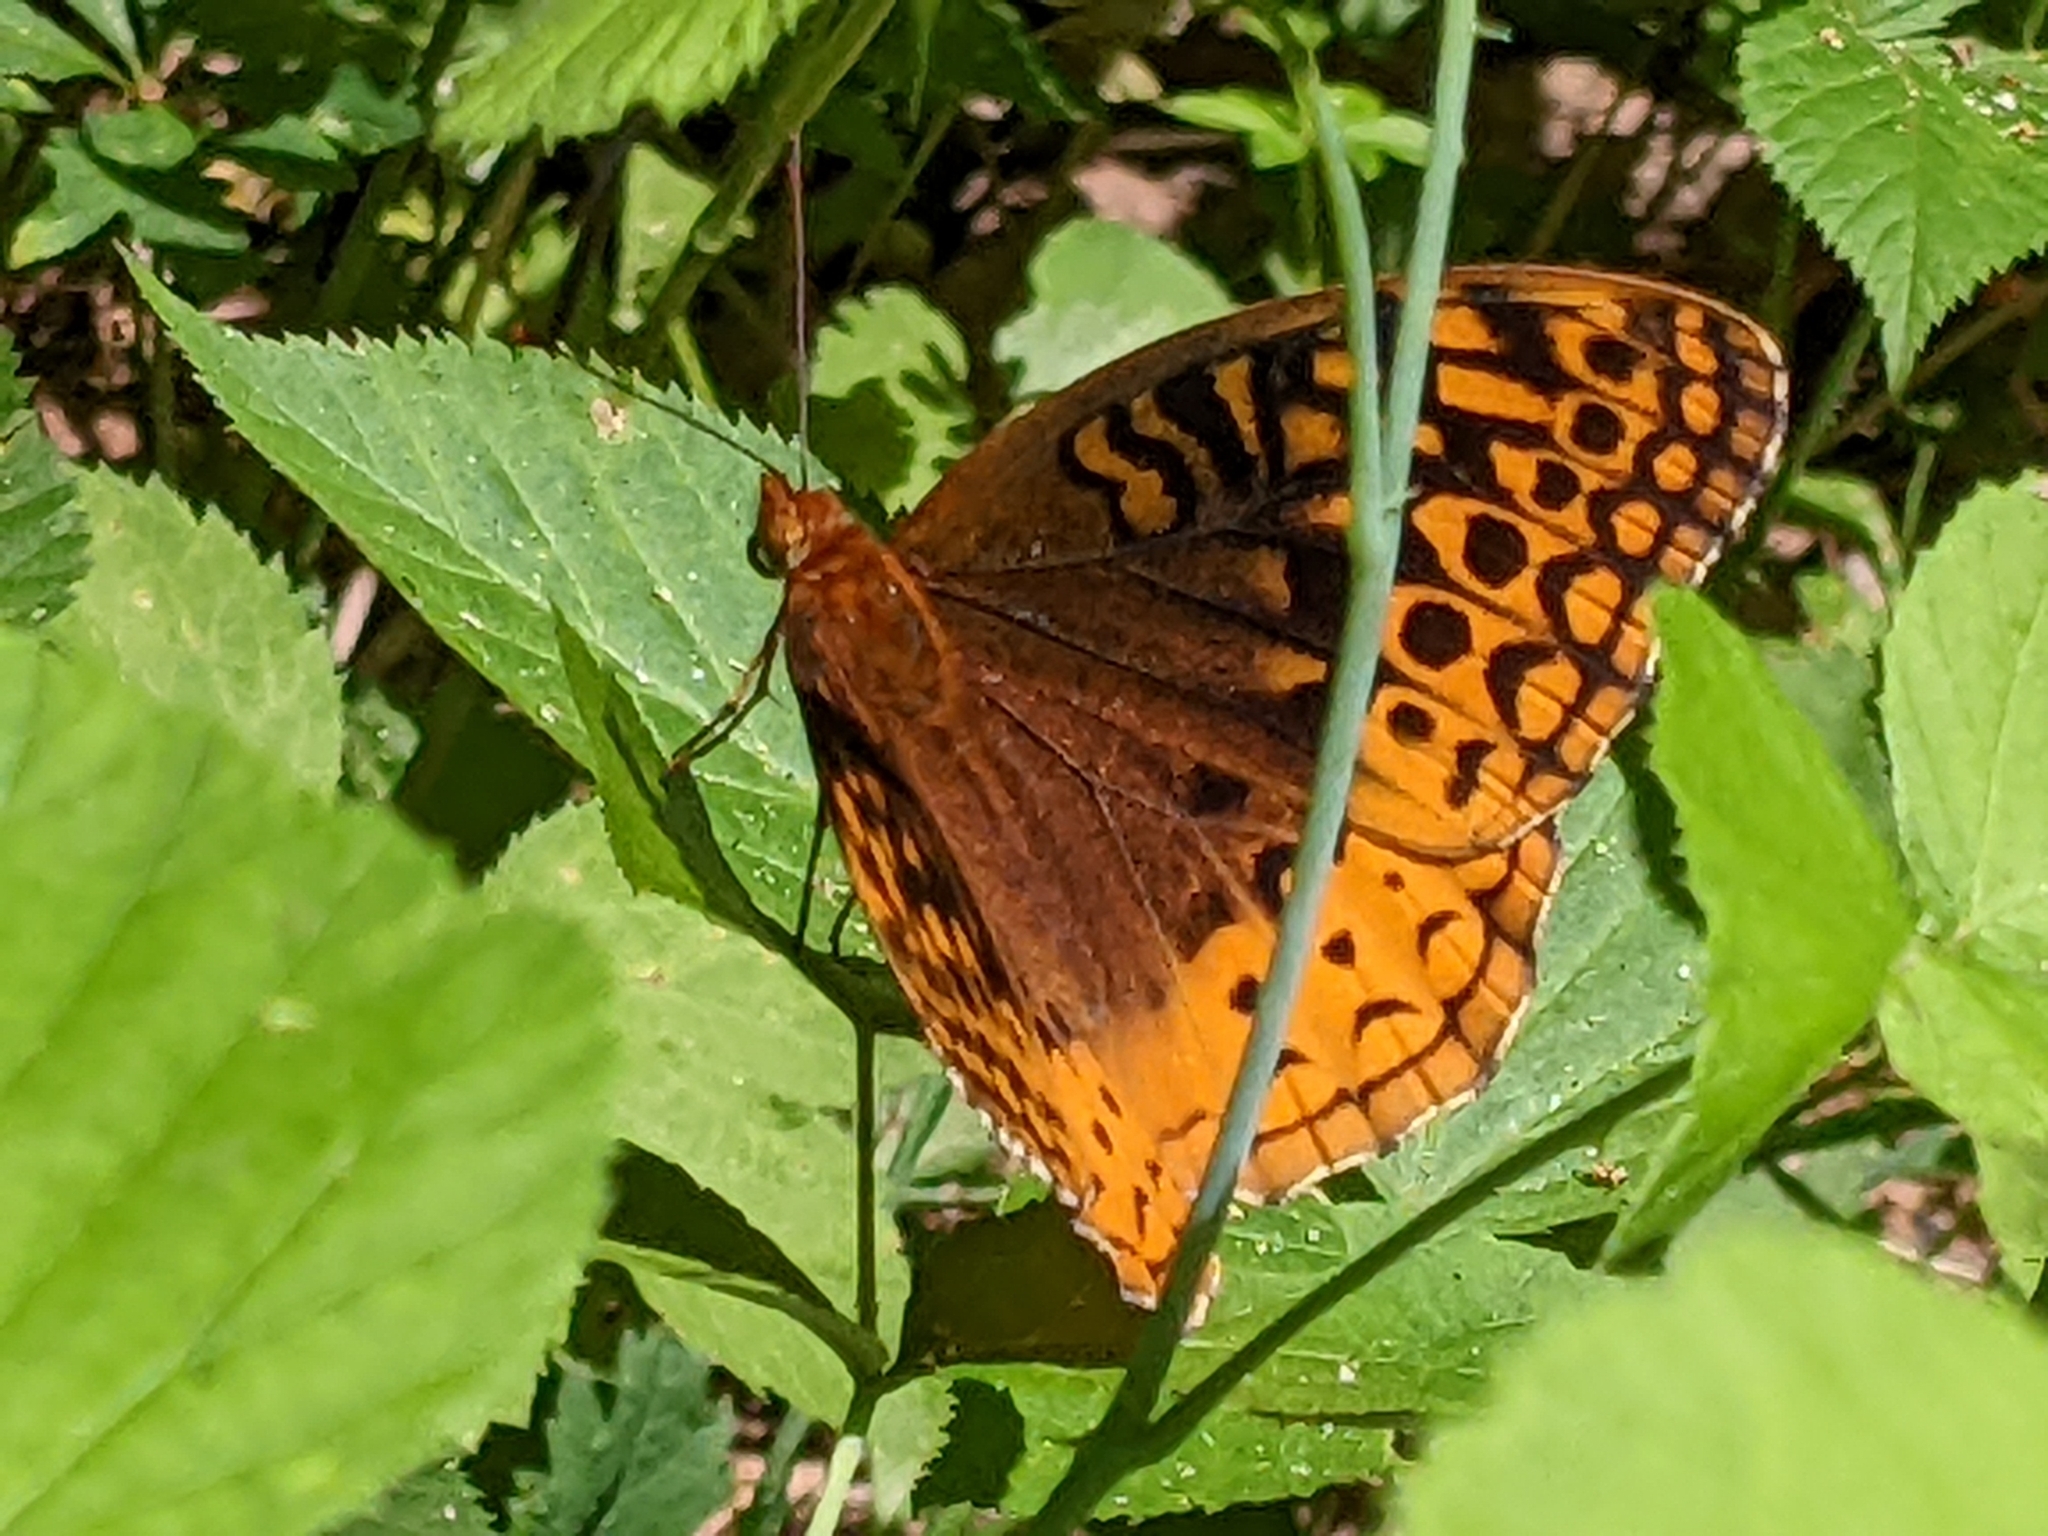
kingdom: Animalia
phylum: Arthropoda
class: Insecta
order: Lepidoptera
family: Nymphalidae
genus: Speyeria
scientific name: Speyeria cybele
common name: Great spangled fritillary
